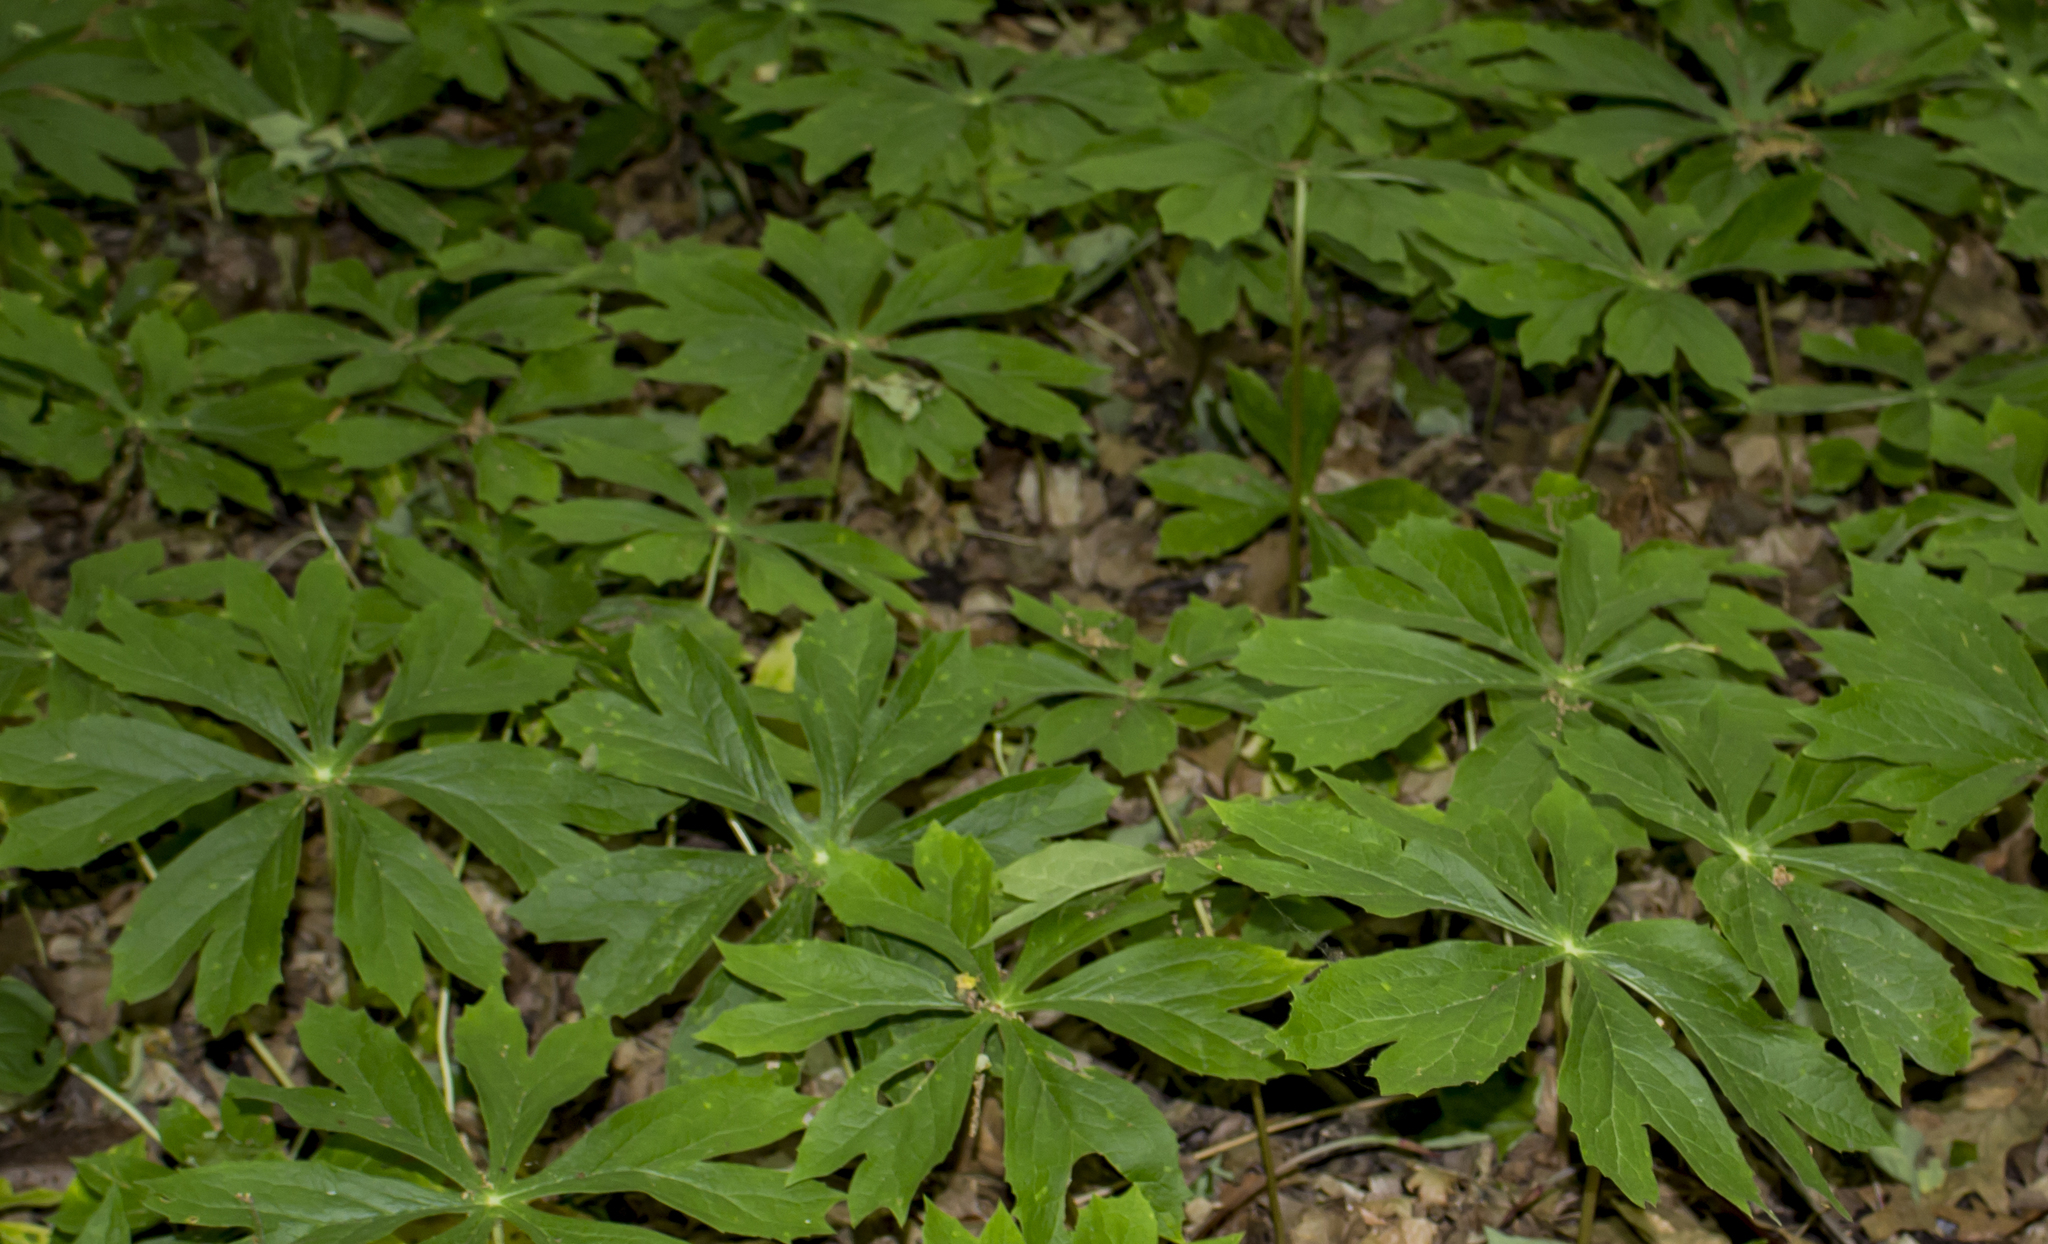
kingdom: Plantae
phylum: Tracheophyta
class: Magnoliopsida
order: Ranunculales
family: Berberidaceae
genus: Podophyllum
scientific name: Podophyllum peltatum
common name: Wild mandrake
